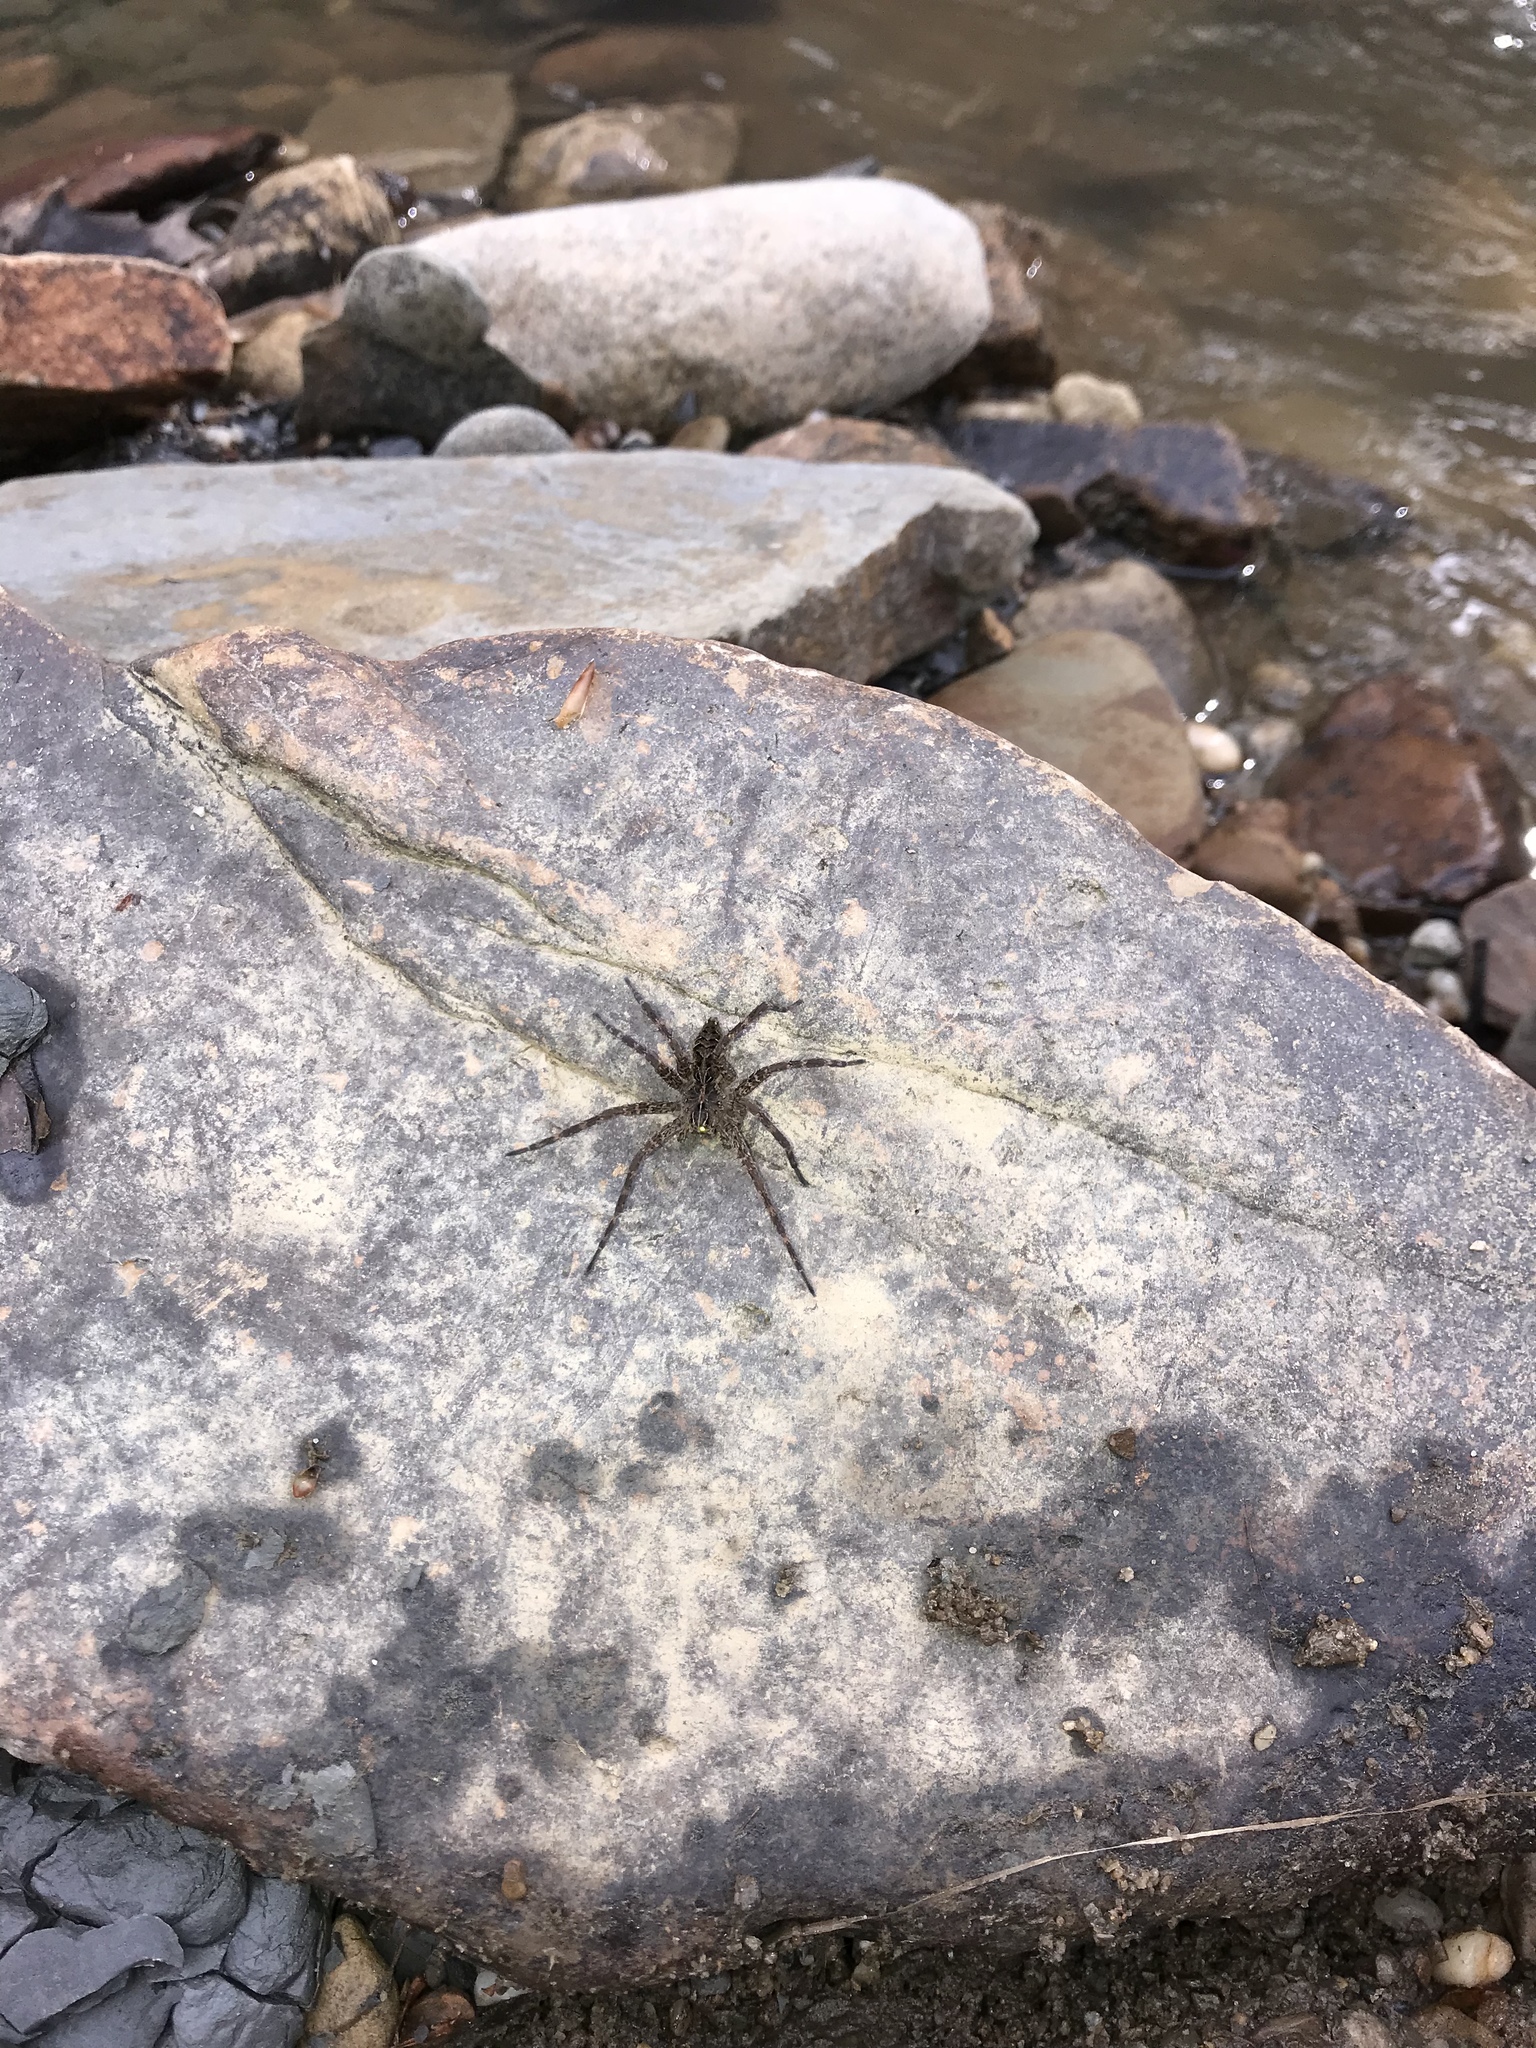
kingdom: Animalia
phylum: Arthropoda
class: Arachnida
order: Araneae
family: Pisauridae
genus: Dolomedes
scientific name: Dolomedes scriptus
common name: Striped fishing spider
